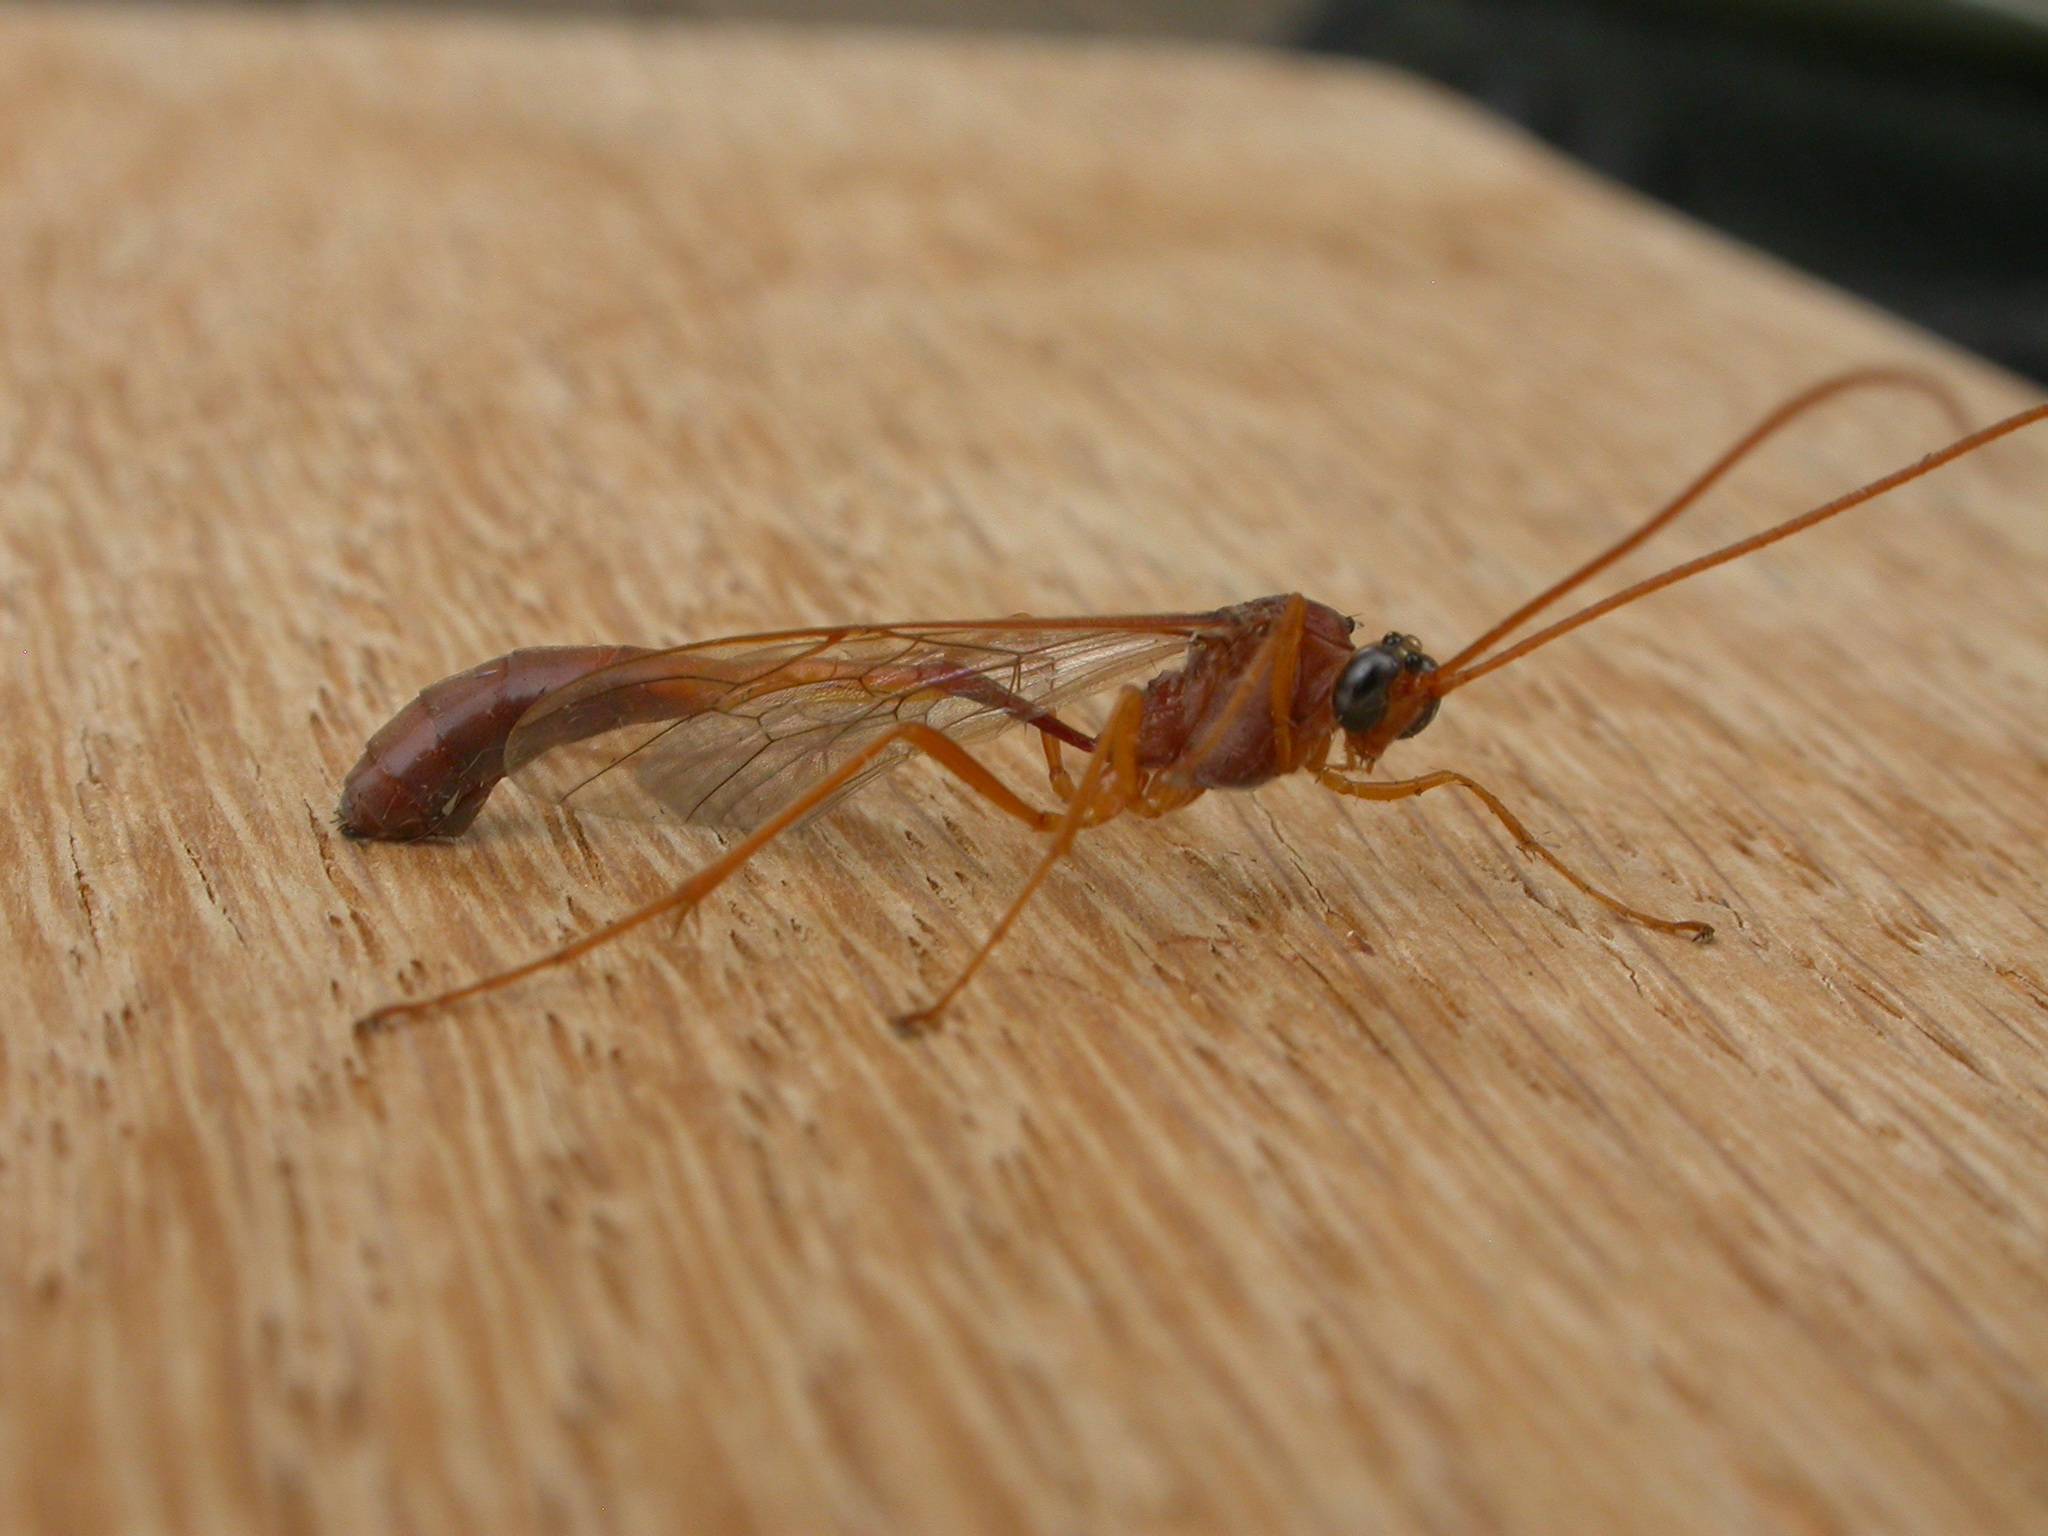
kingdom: Animalia
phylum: Arthropoda
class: Insecta
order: Hymenoptera
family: Ichneumonidae
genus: Enicospilus
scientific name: Enicospilus sausi
